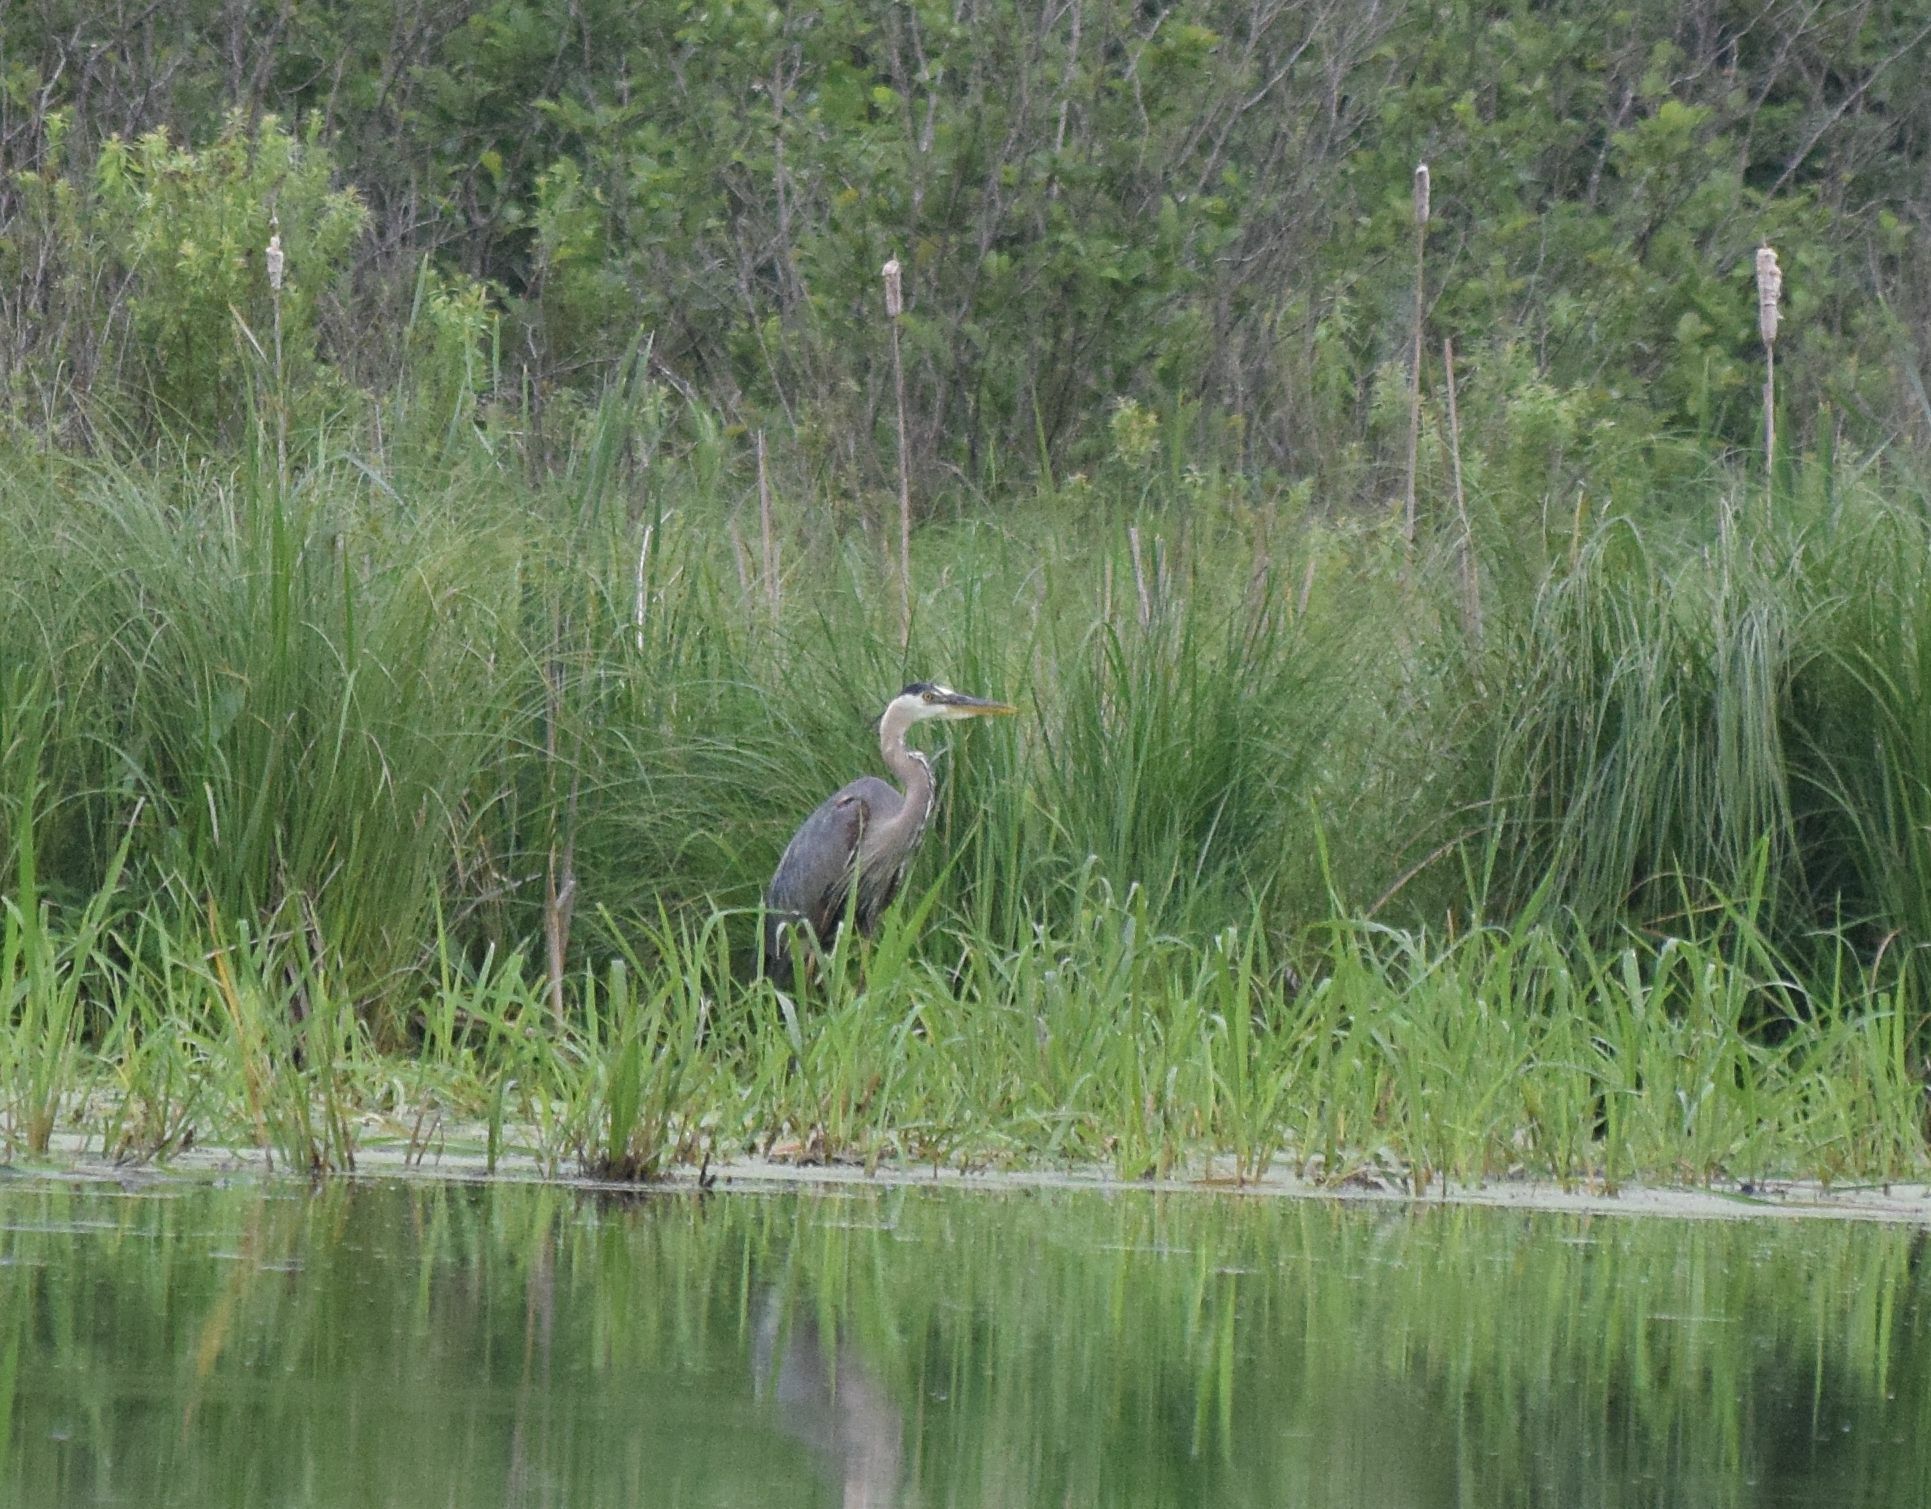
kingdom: Animalia
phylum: Chordata
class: Aves
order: Pelecaniformes
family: Ardeidae
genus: Ardea
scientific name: Ardea herodias
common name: Great blue heron
